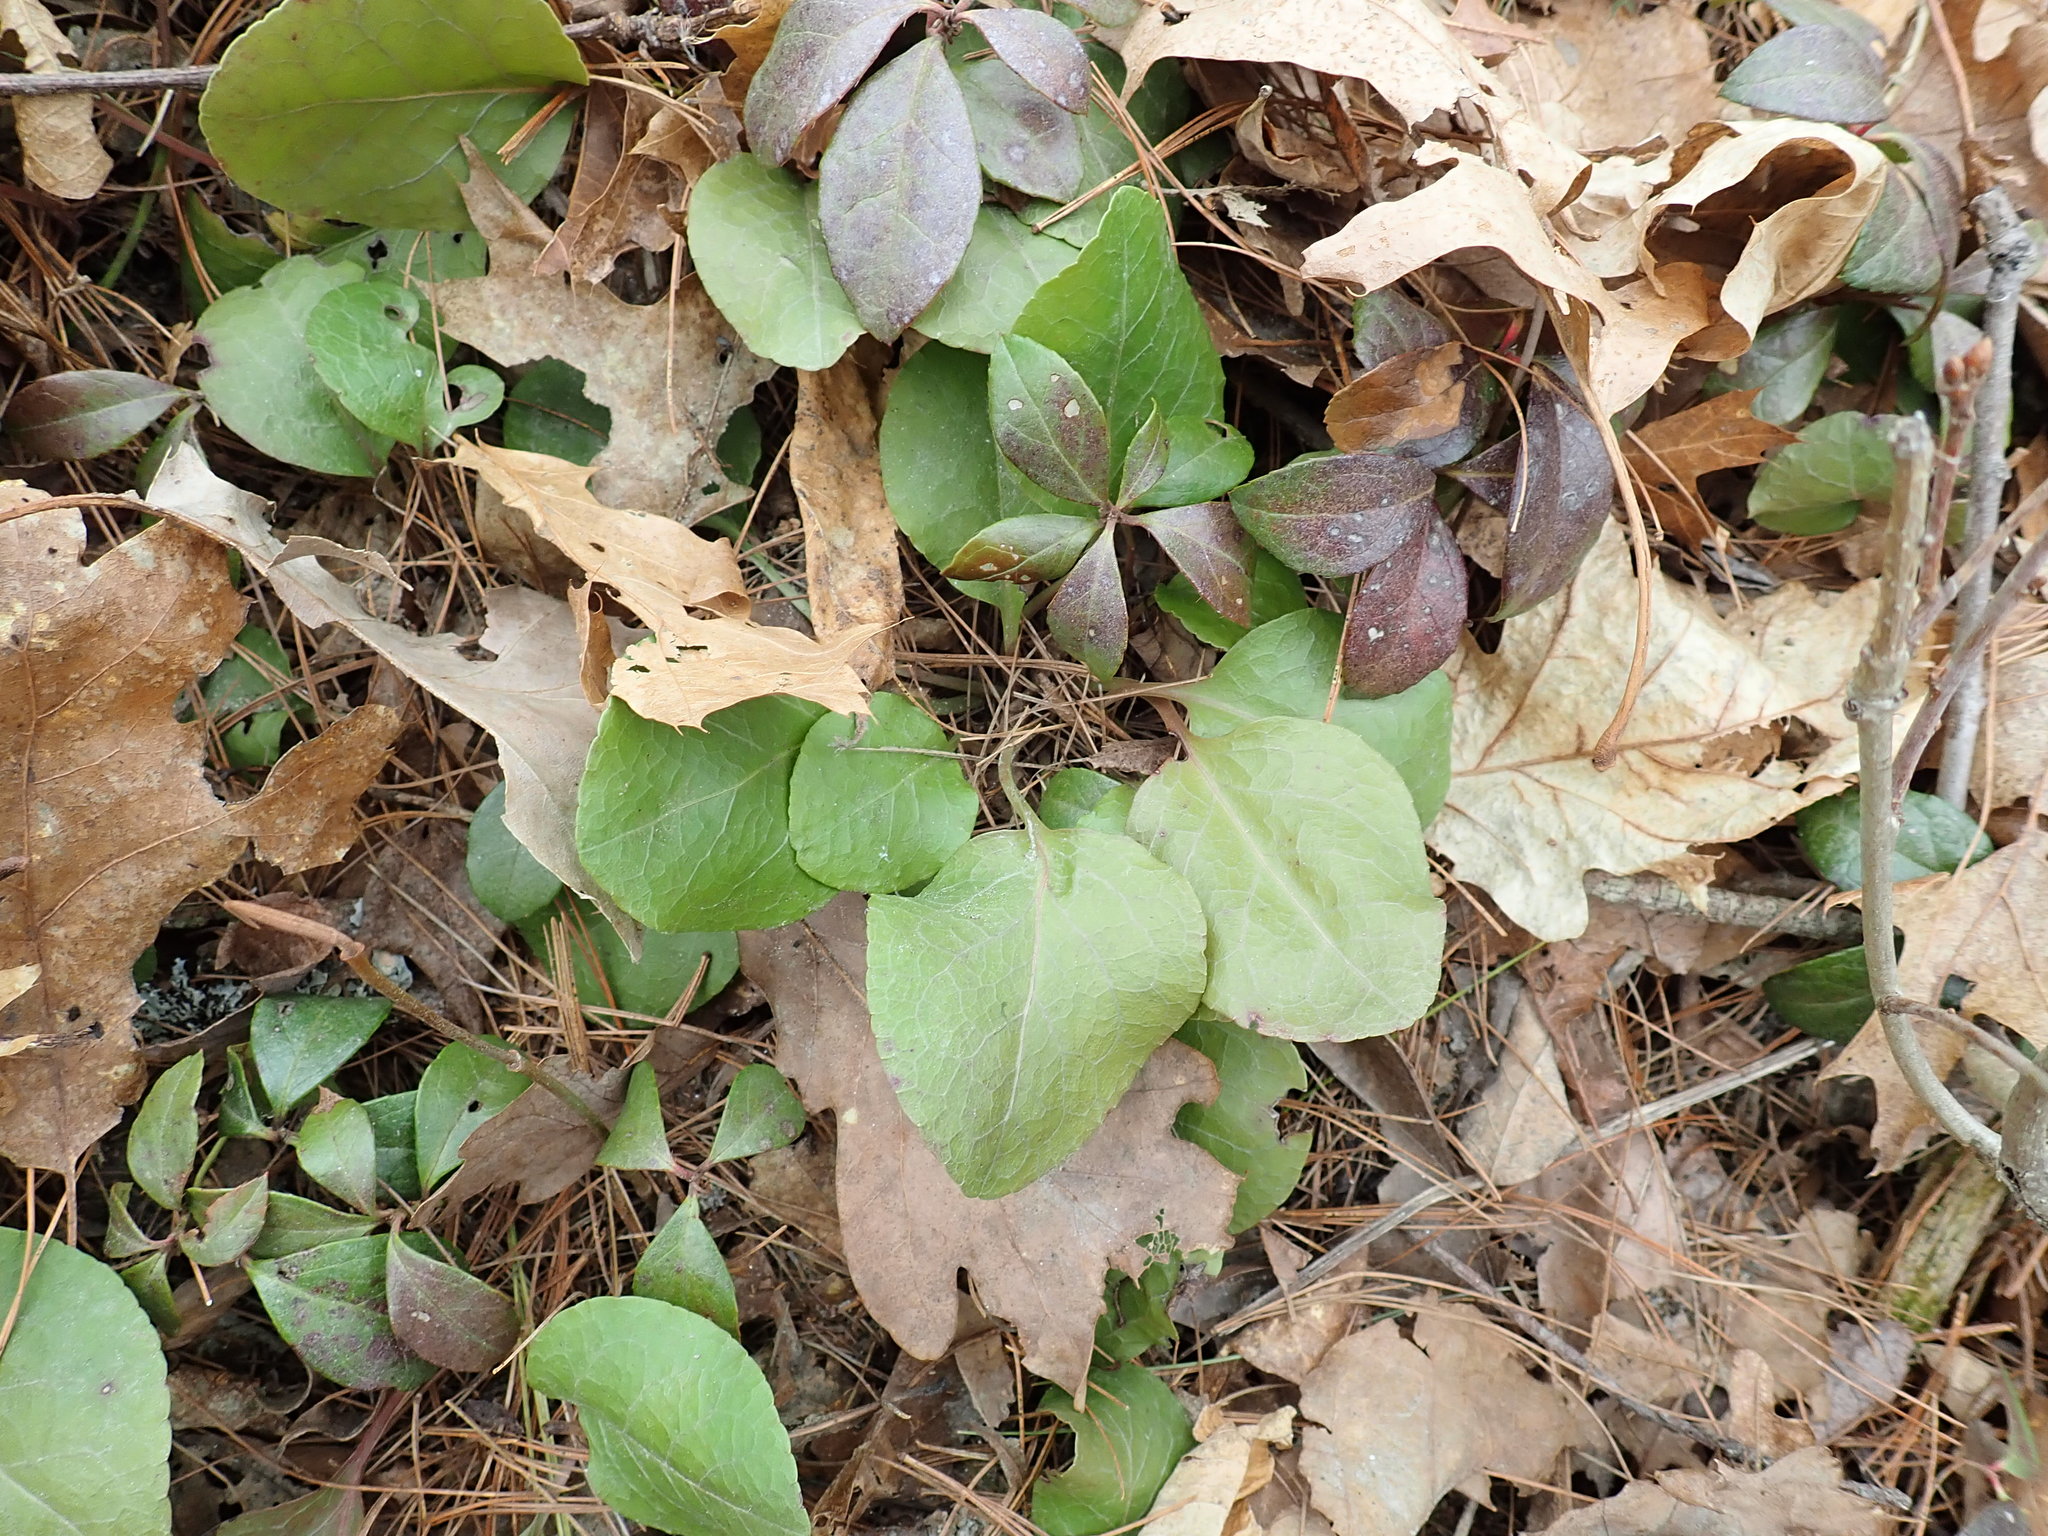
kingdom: Plantae
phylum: Tracheophyta
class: Magnoliopsida
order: Ericales
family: Ericaceae
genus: Pyrola
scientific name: Pyrola elliptica
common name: Shinleaf
